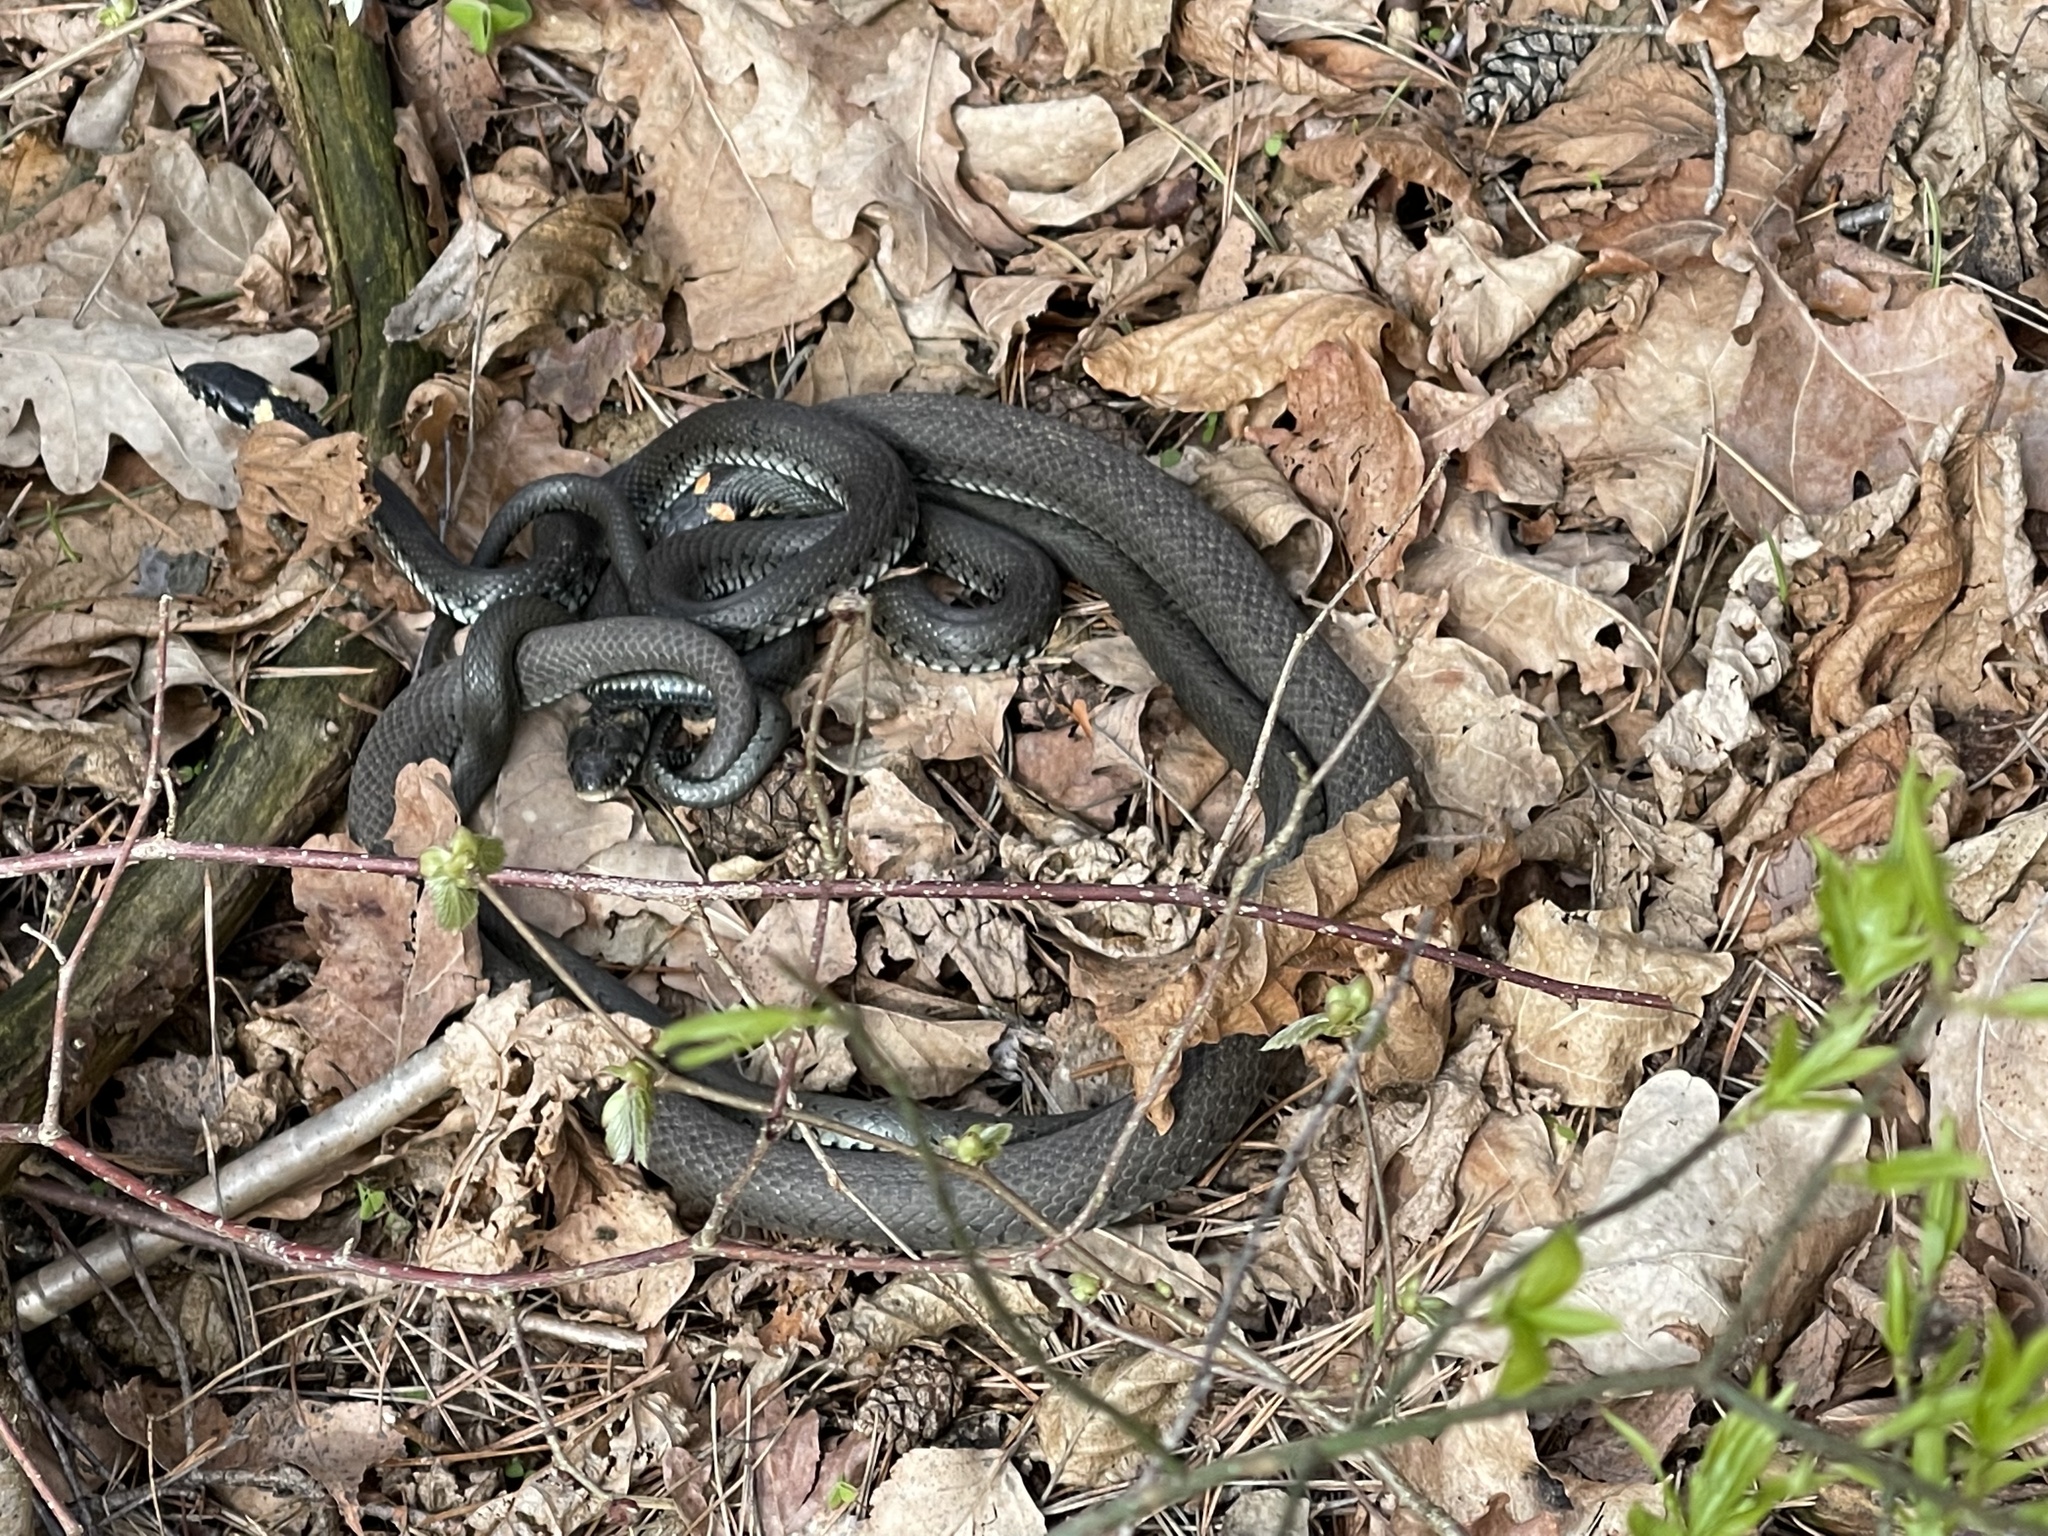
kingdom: Animalia
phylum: Chordata
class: Squamata
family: Colubridae
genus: Natrix
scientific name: Natrix natrix
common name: Grass snake
